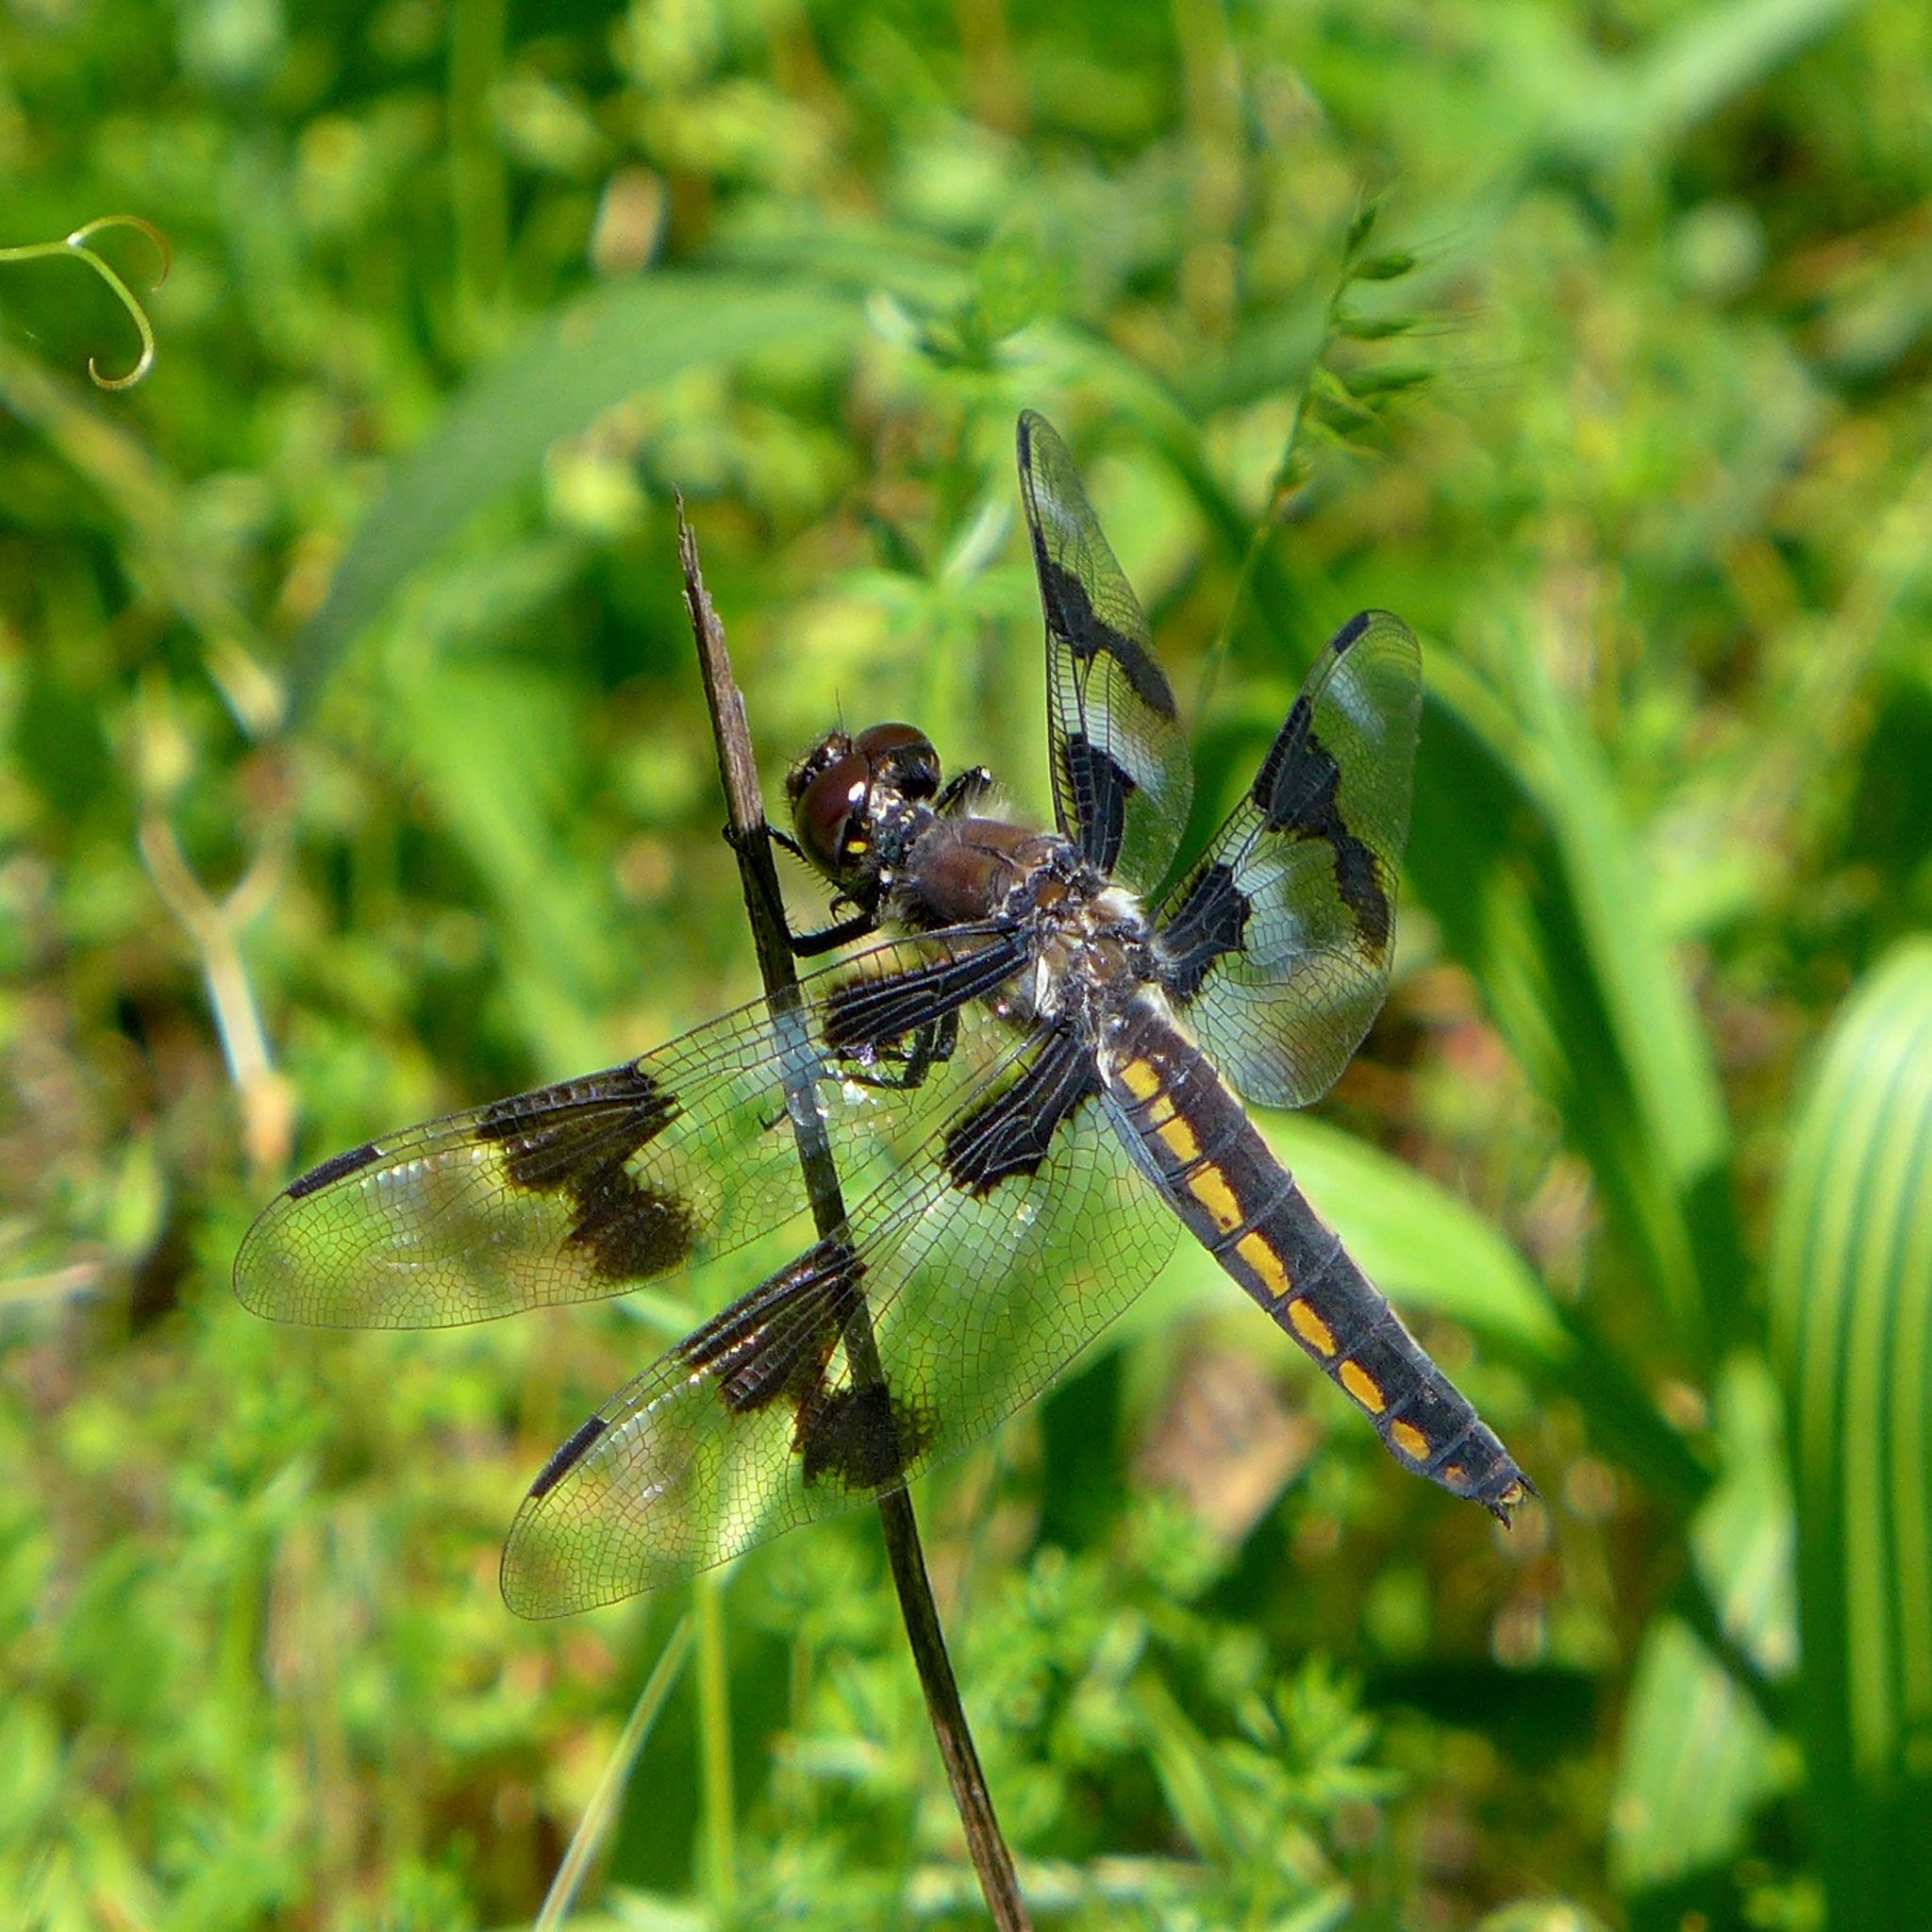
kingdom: Animalia
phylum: Arthropoda
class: Insecta
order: Odonata
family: Libellulidae
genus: Libellula
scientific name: Libellula forensis
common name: Eight-spotted skimmer
